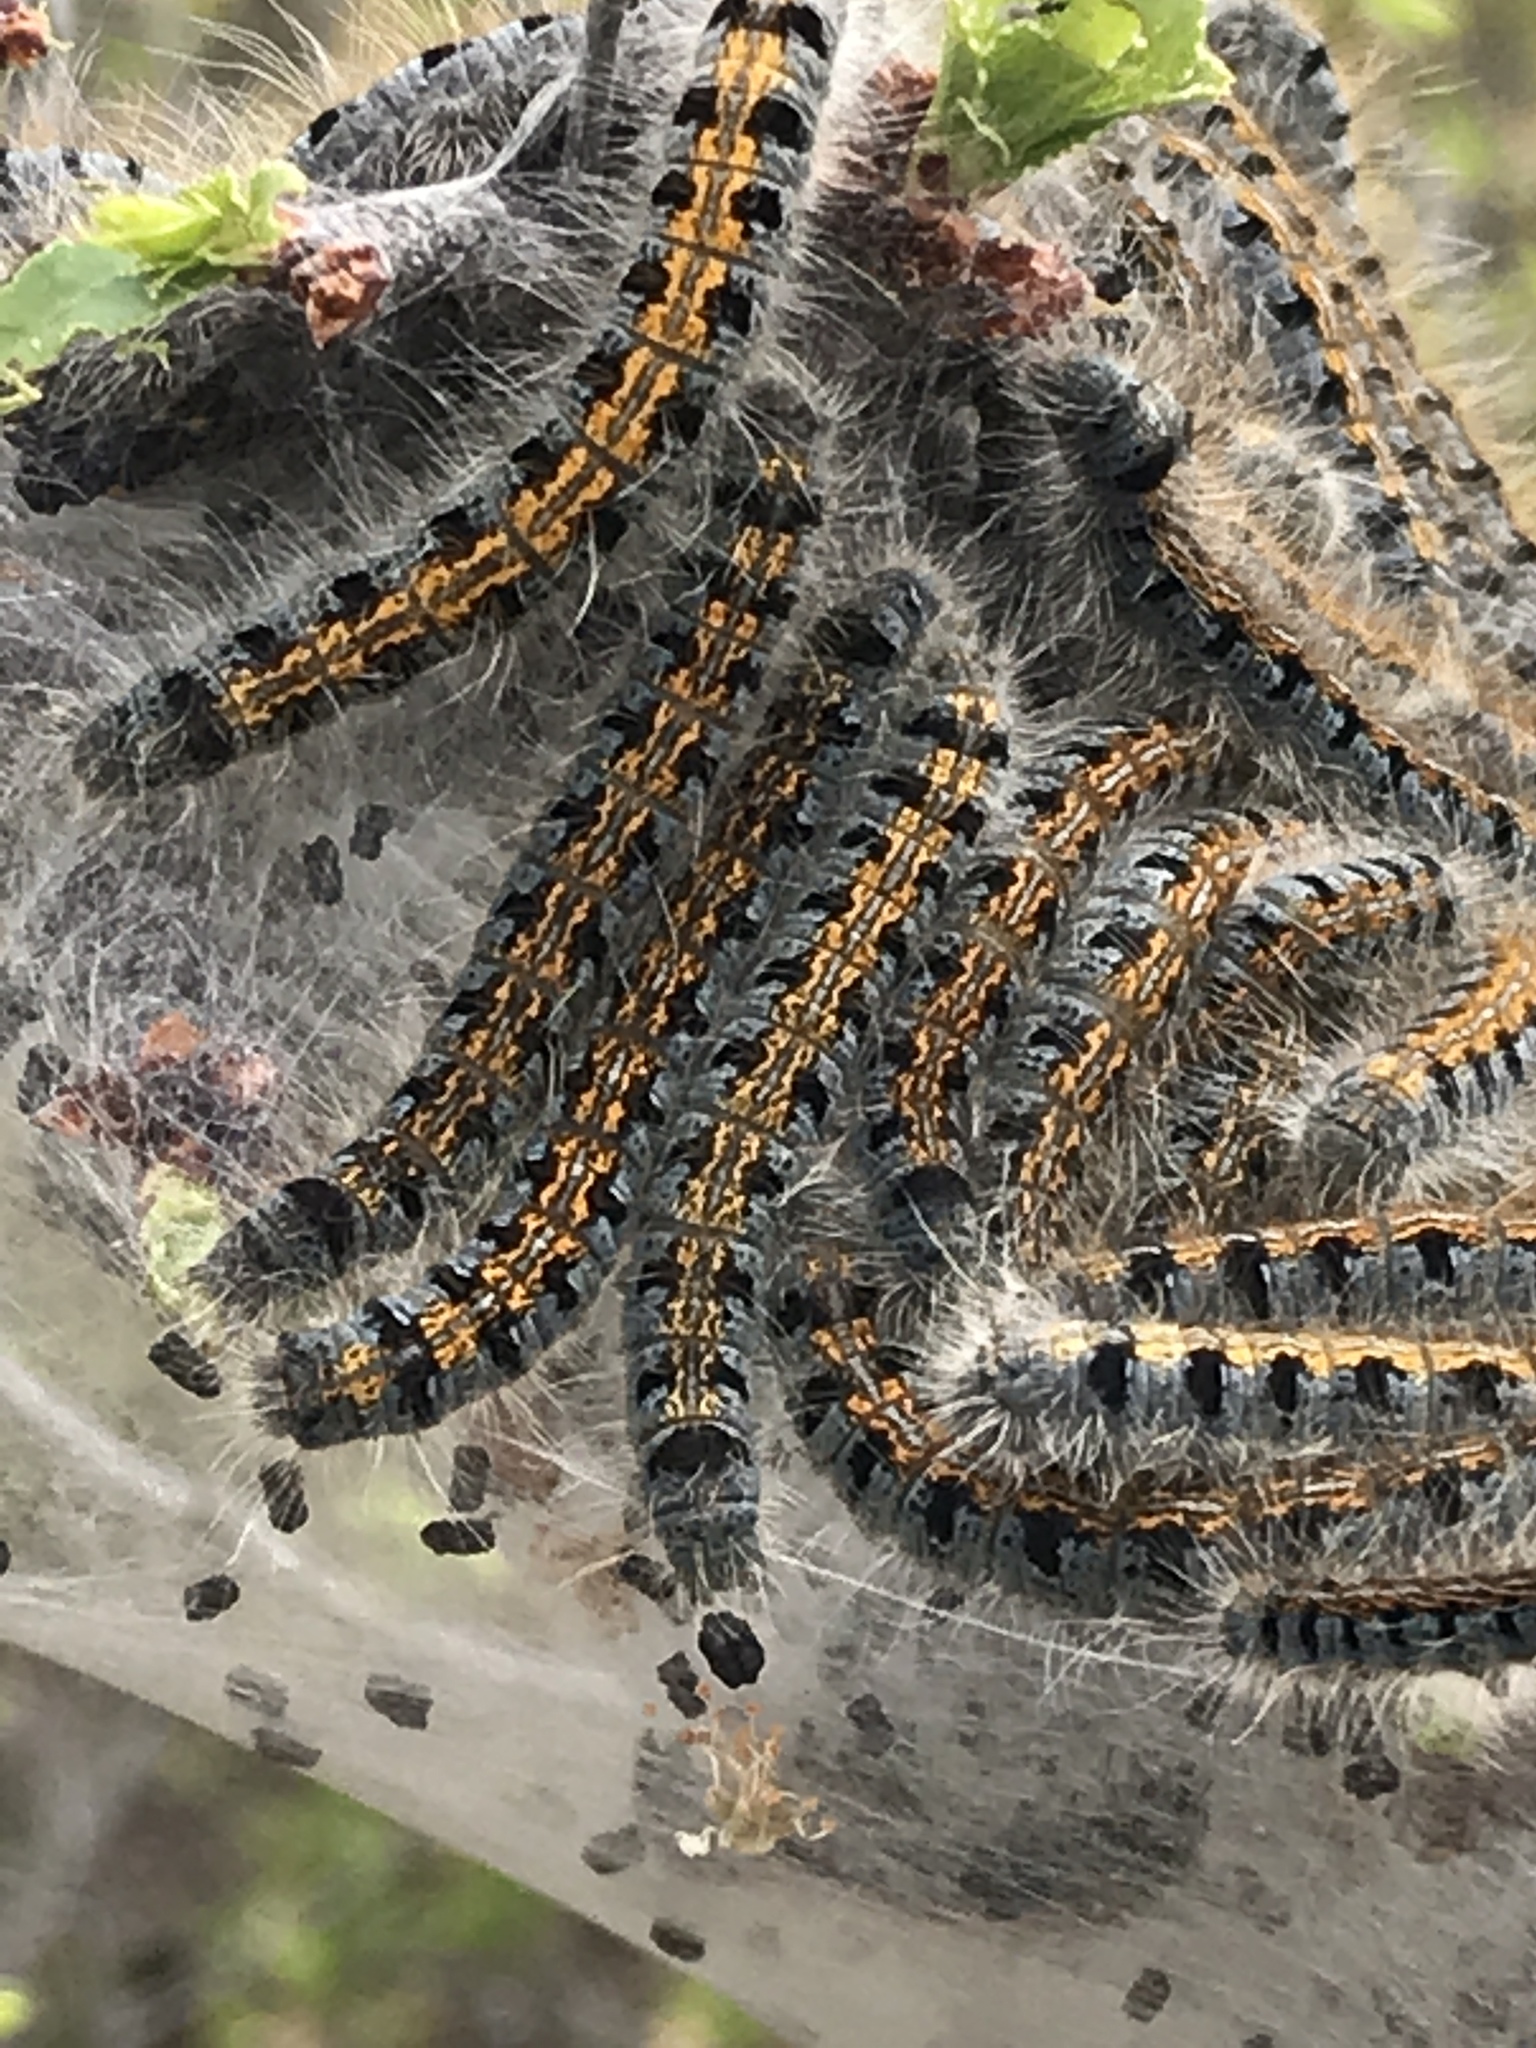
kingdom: Animalia
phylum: Arthropoda
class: Insecta
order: Lepidoptera
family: Lasiocampidae
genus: Malacosoma
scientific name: Malacosoma americana
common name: Eastern tent caterpillar moth
